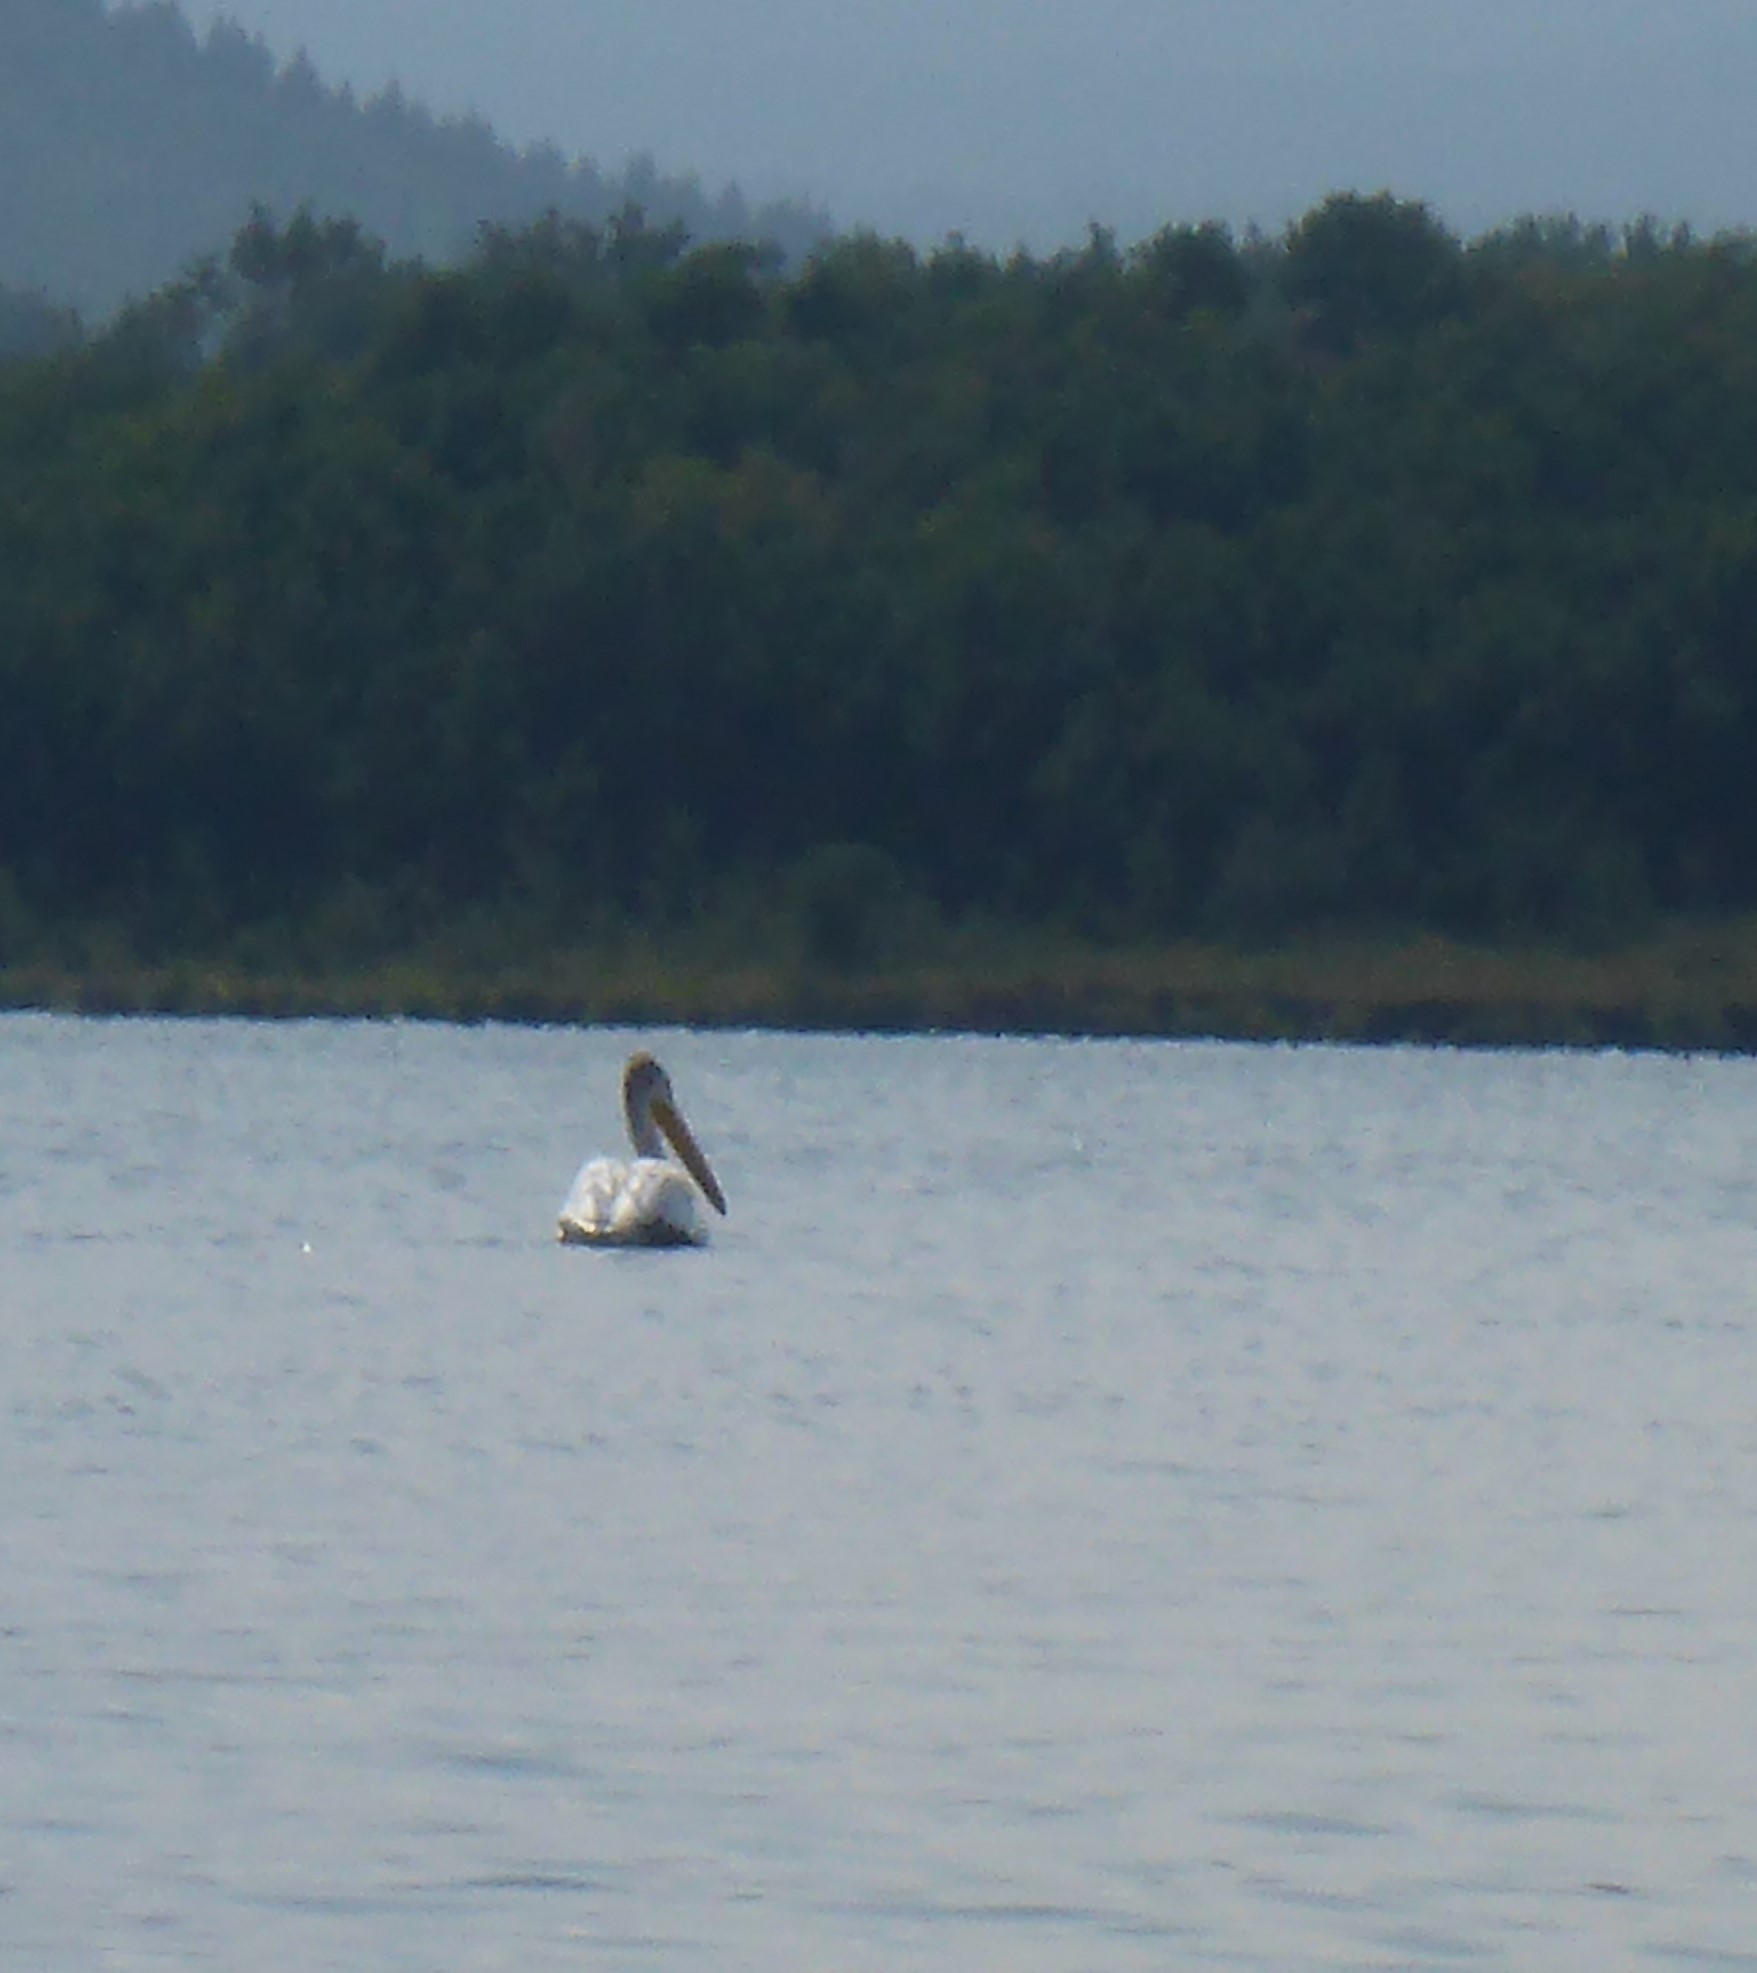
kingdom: Animalia
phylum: Chordata
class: Aves
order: Pelecaniformes
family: Pelecanidae
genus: Pelecanus
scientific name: Pelecanus erythrorhynchos
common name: American white pelican
